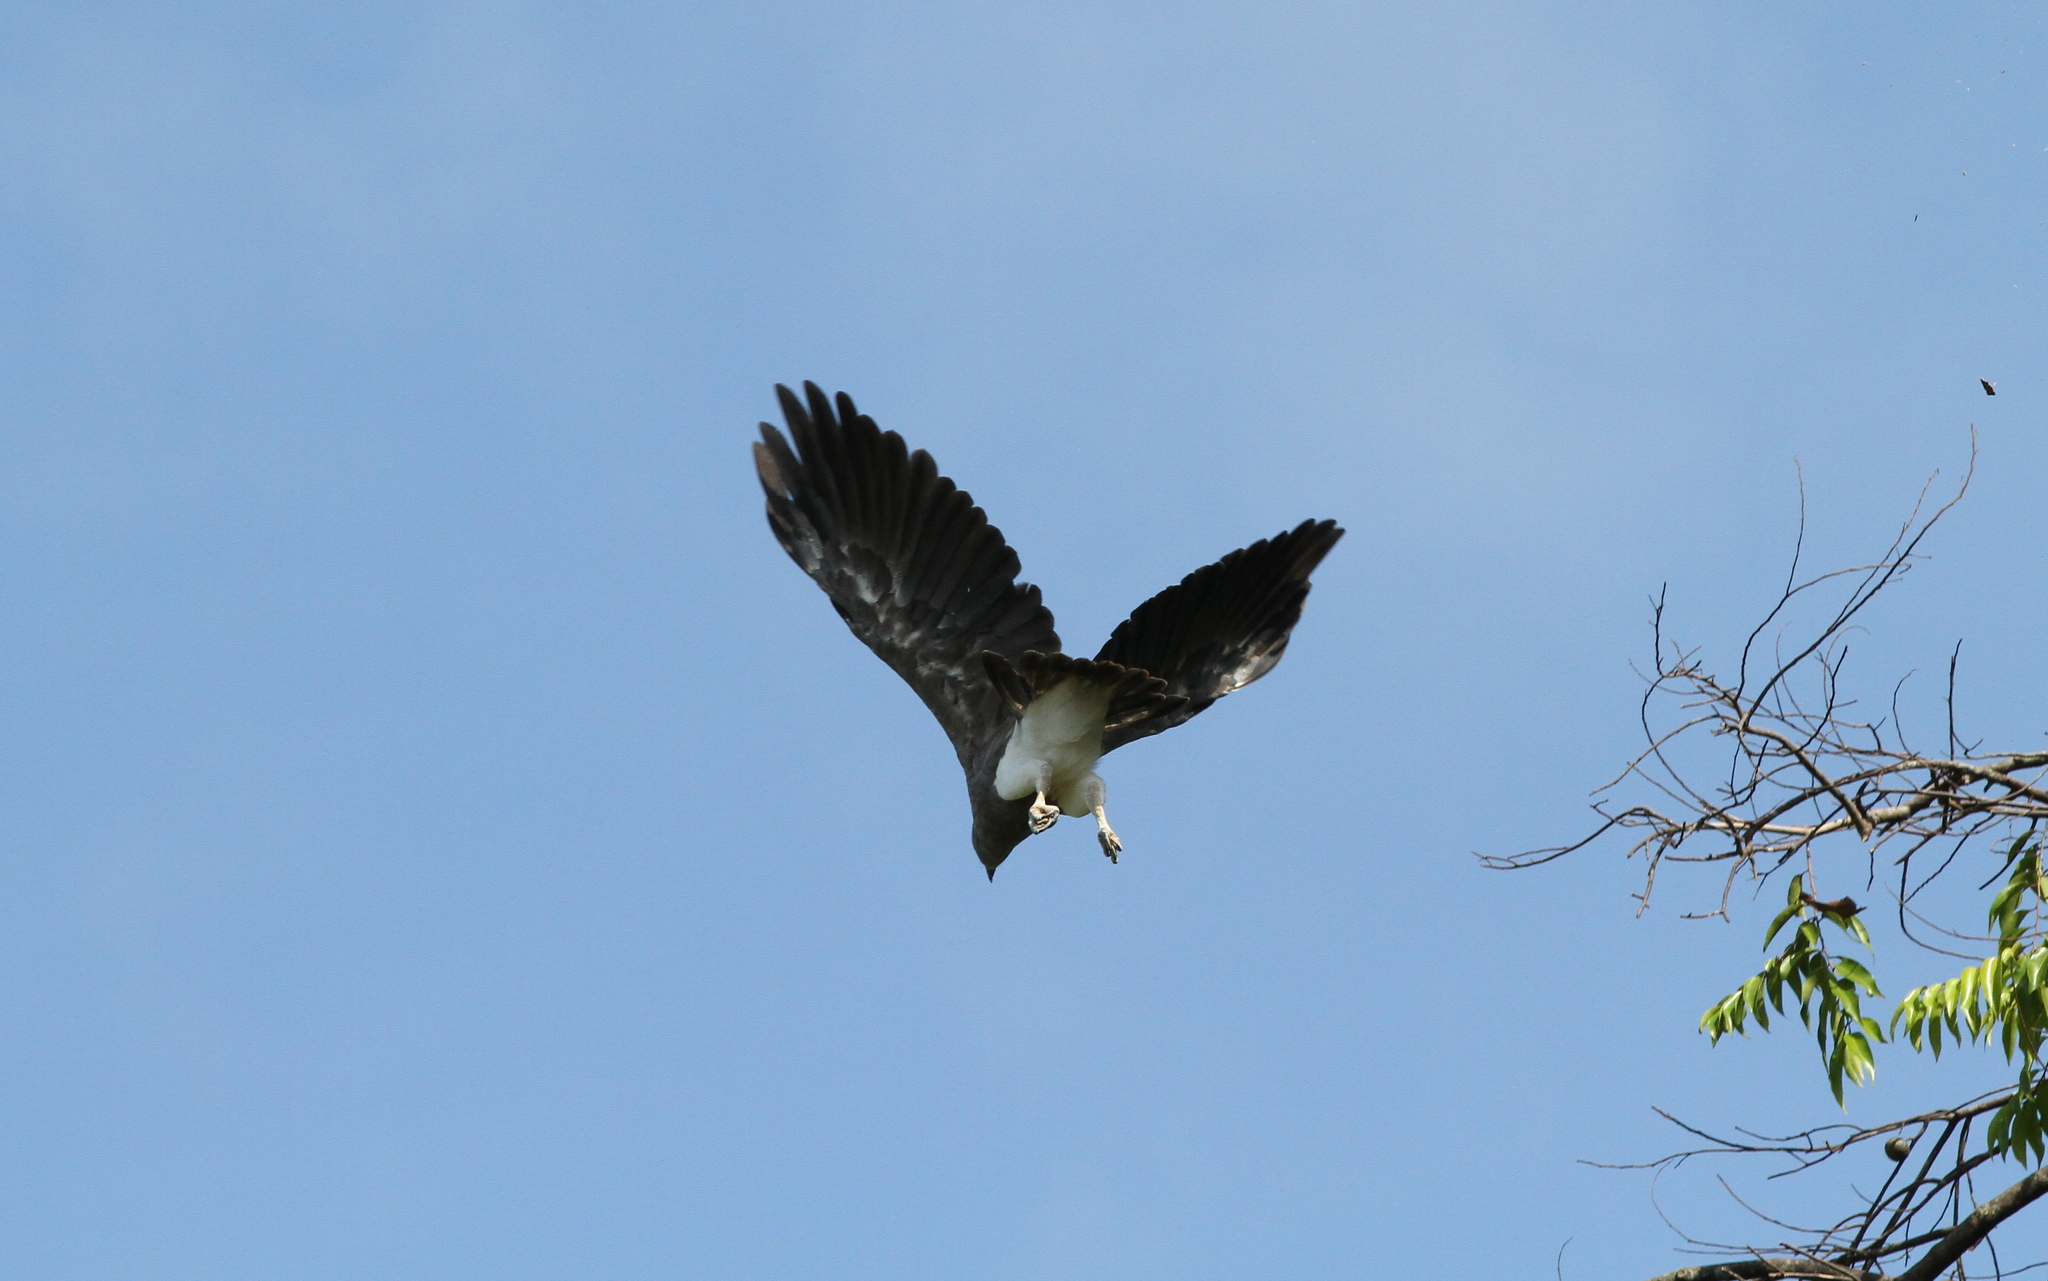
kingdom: Animalia
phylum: Chordata
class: Aves
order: Accipitriformes
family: Accipitridae
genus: Icthyophaga
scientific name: Icthyophaga humilis
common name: Lesser fish-eagle
